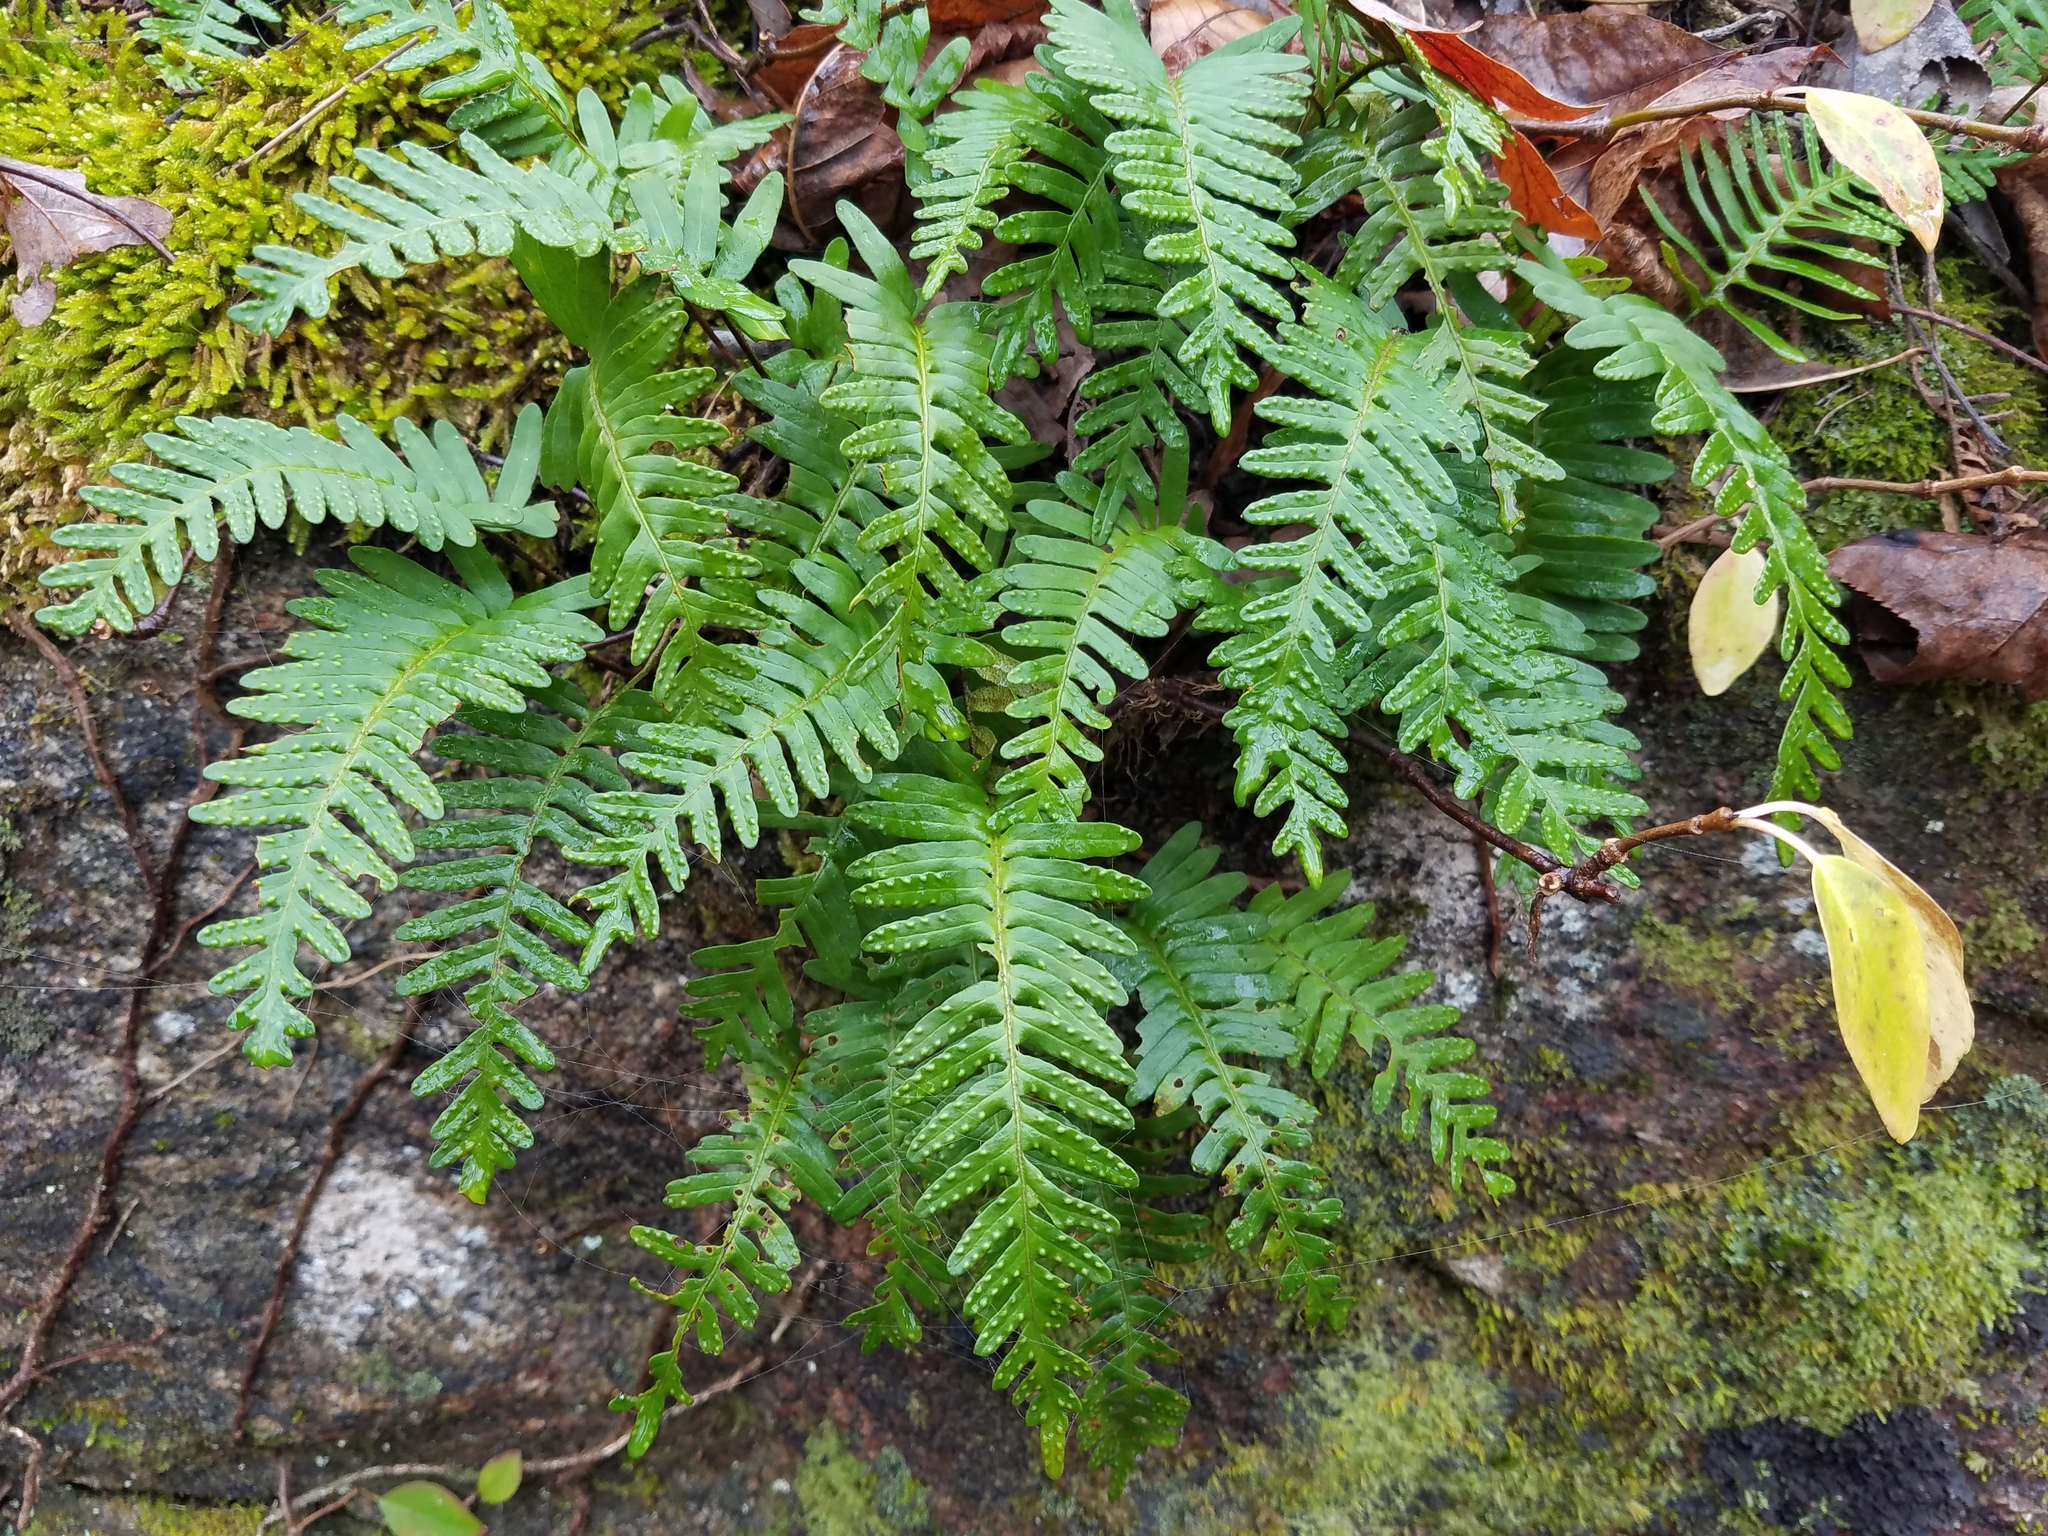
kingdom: Plantae
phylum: Tracheophyta
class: Polypodiopsida
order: Polypodiales
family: Polypodiaceae
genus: Pleopeltis
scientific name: Pleopeltis michauxiana
